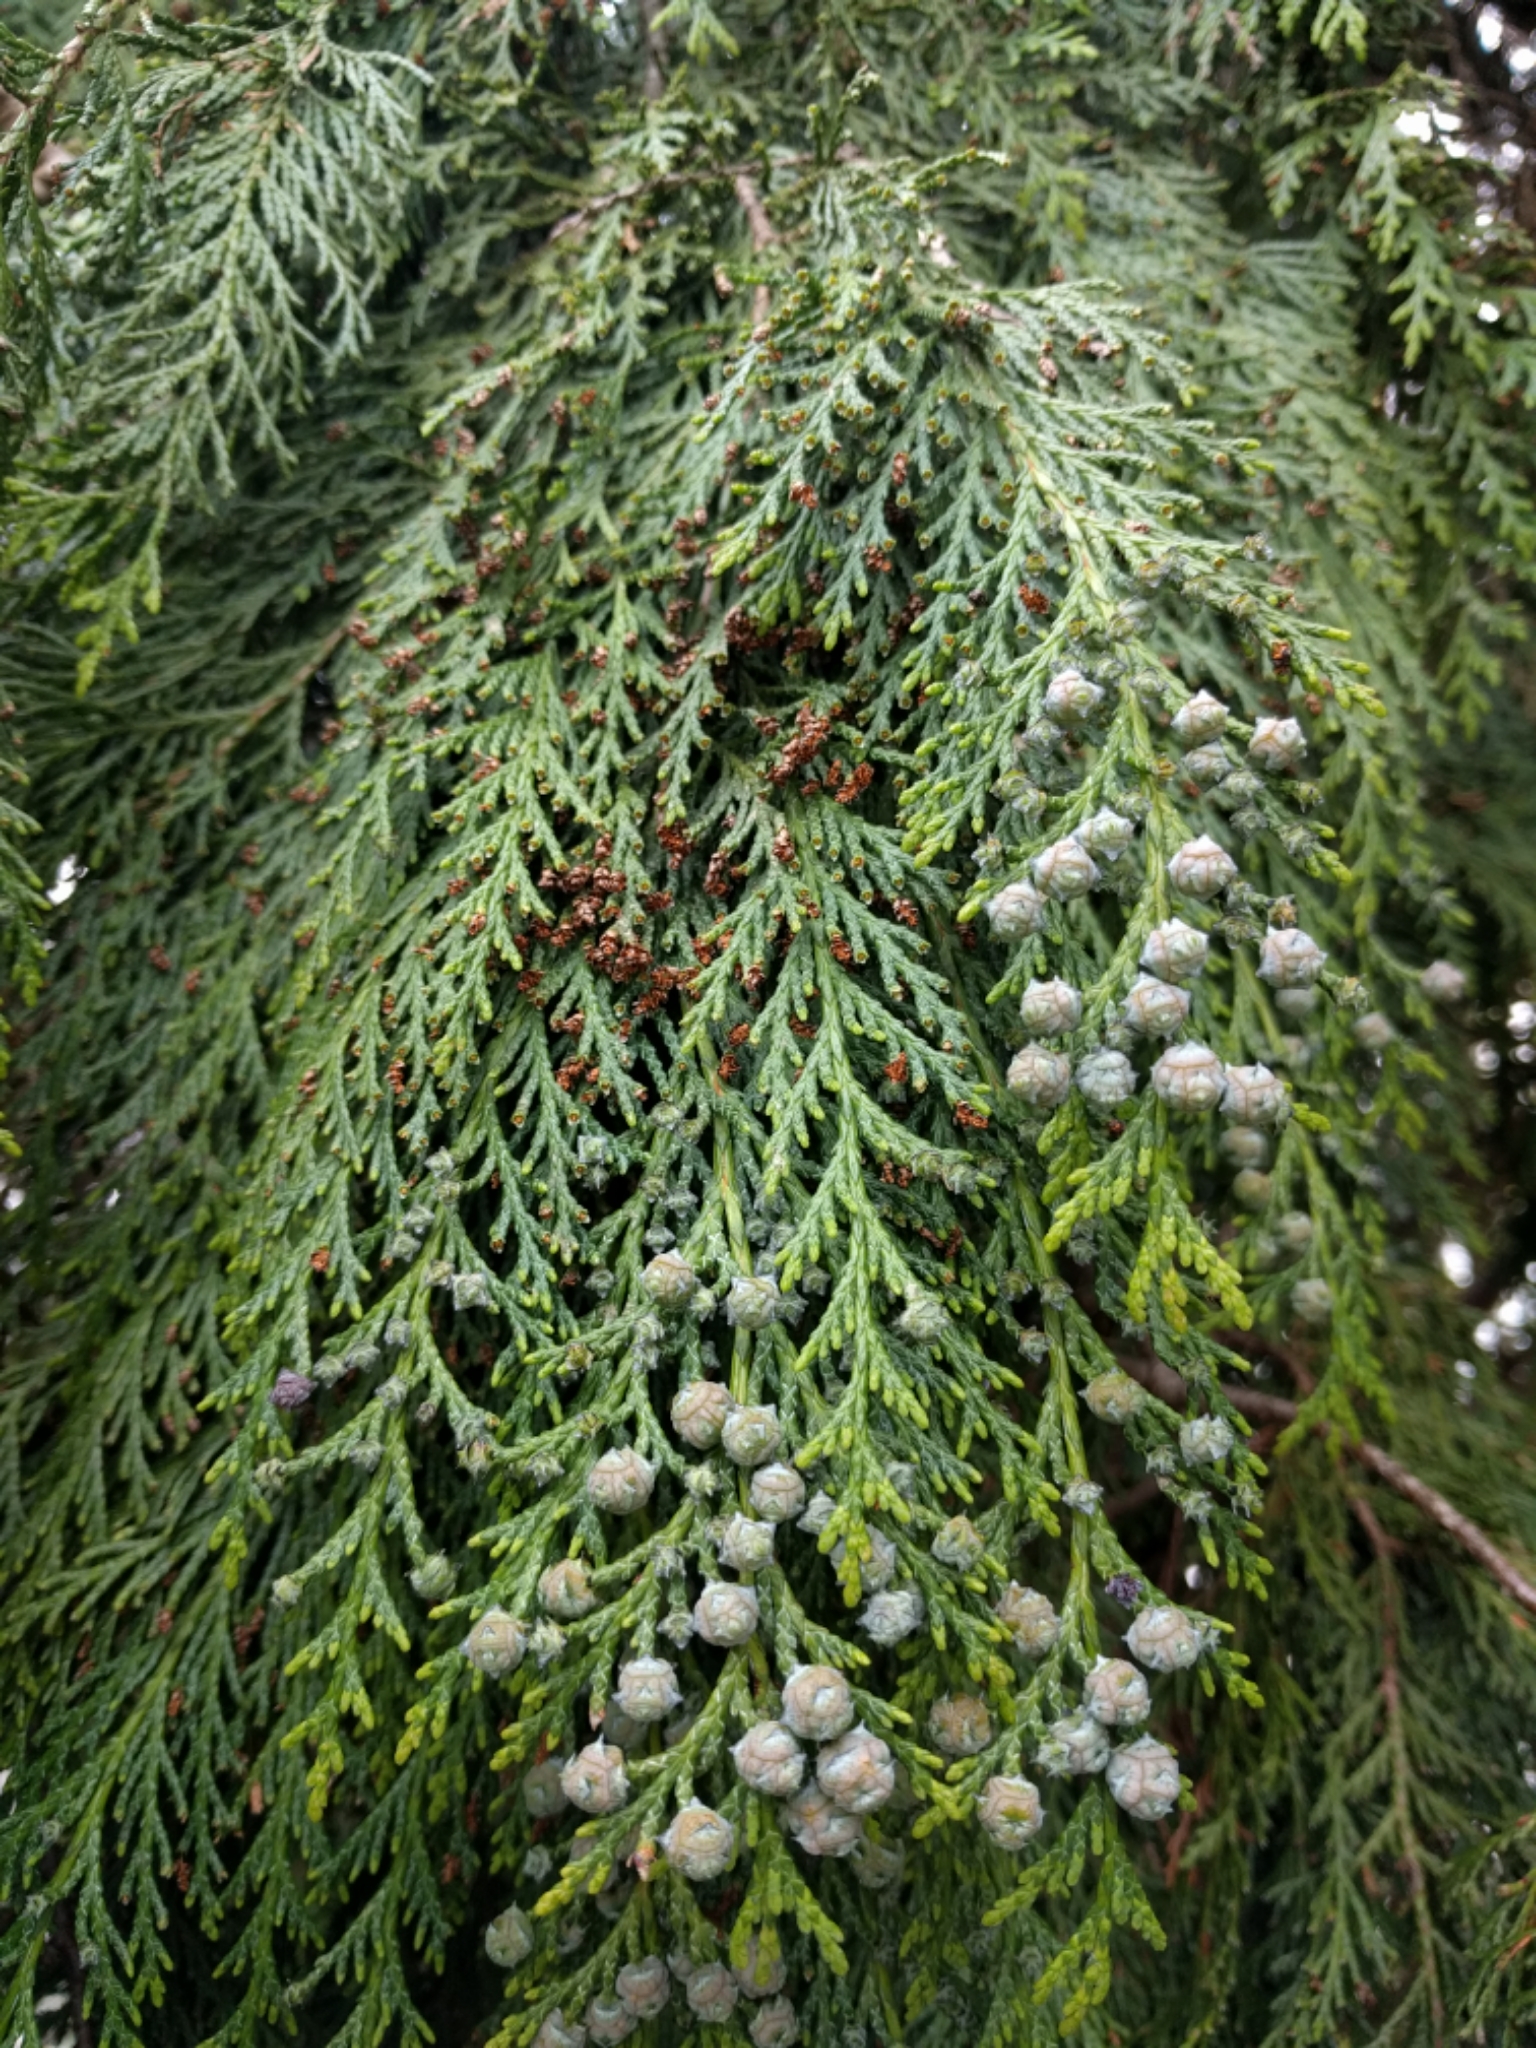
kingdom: Plantae
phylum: Tracheophyta
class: Pinopsida
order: Pinales
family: Cupressaceae
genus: Xanthocyparis
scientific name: Xanthocyparis nootkatensis
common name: Nootka cypress
